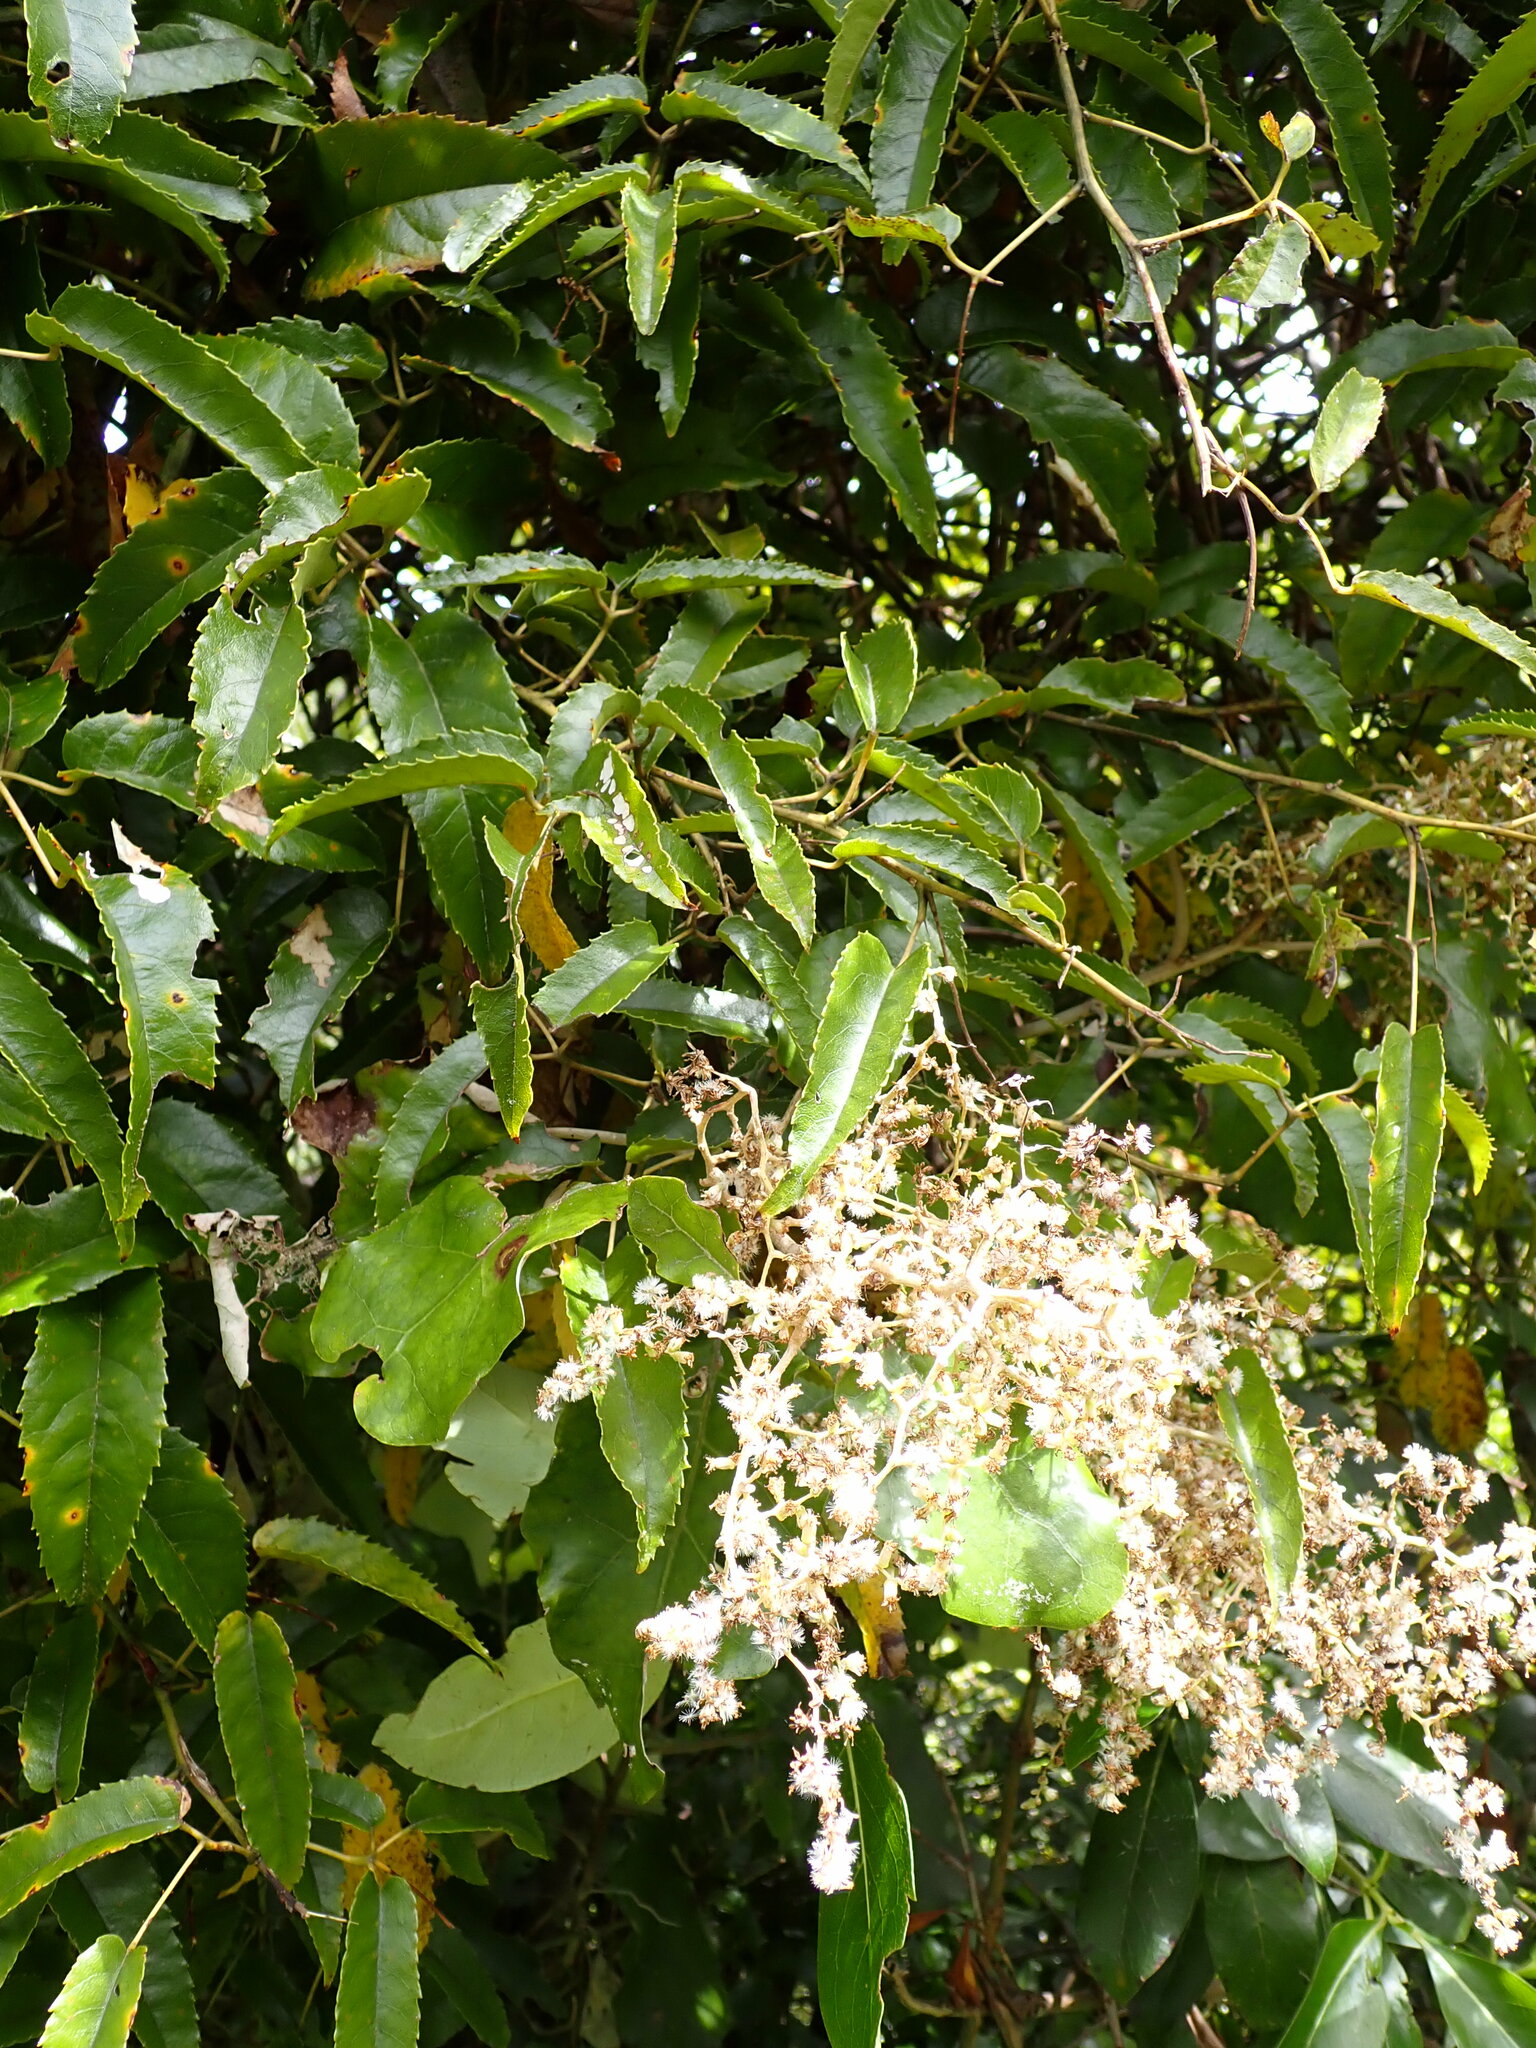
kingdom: Plantae
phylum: Tracheophyta
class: Magnoliopsida
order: Rosales
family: Rosaceae
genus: Rubus
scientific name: Rubus cissoides
